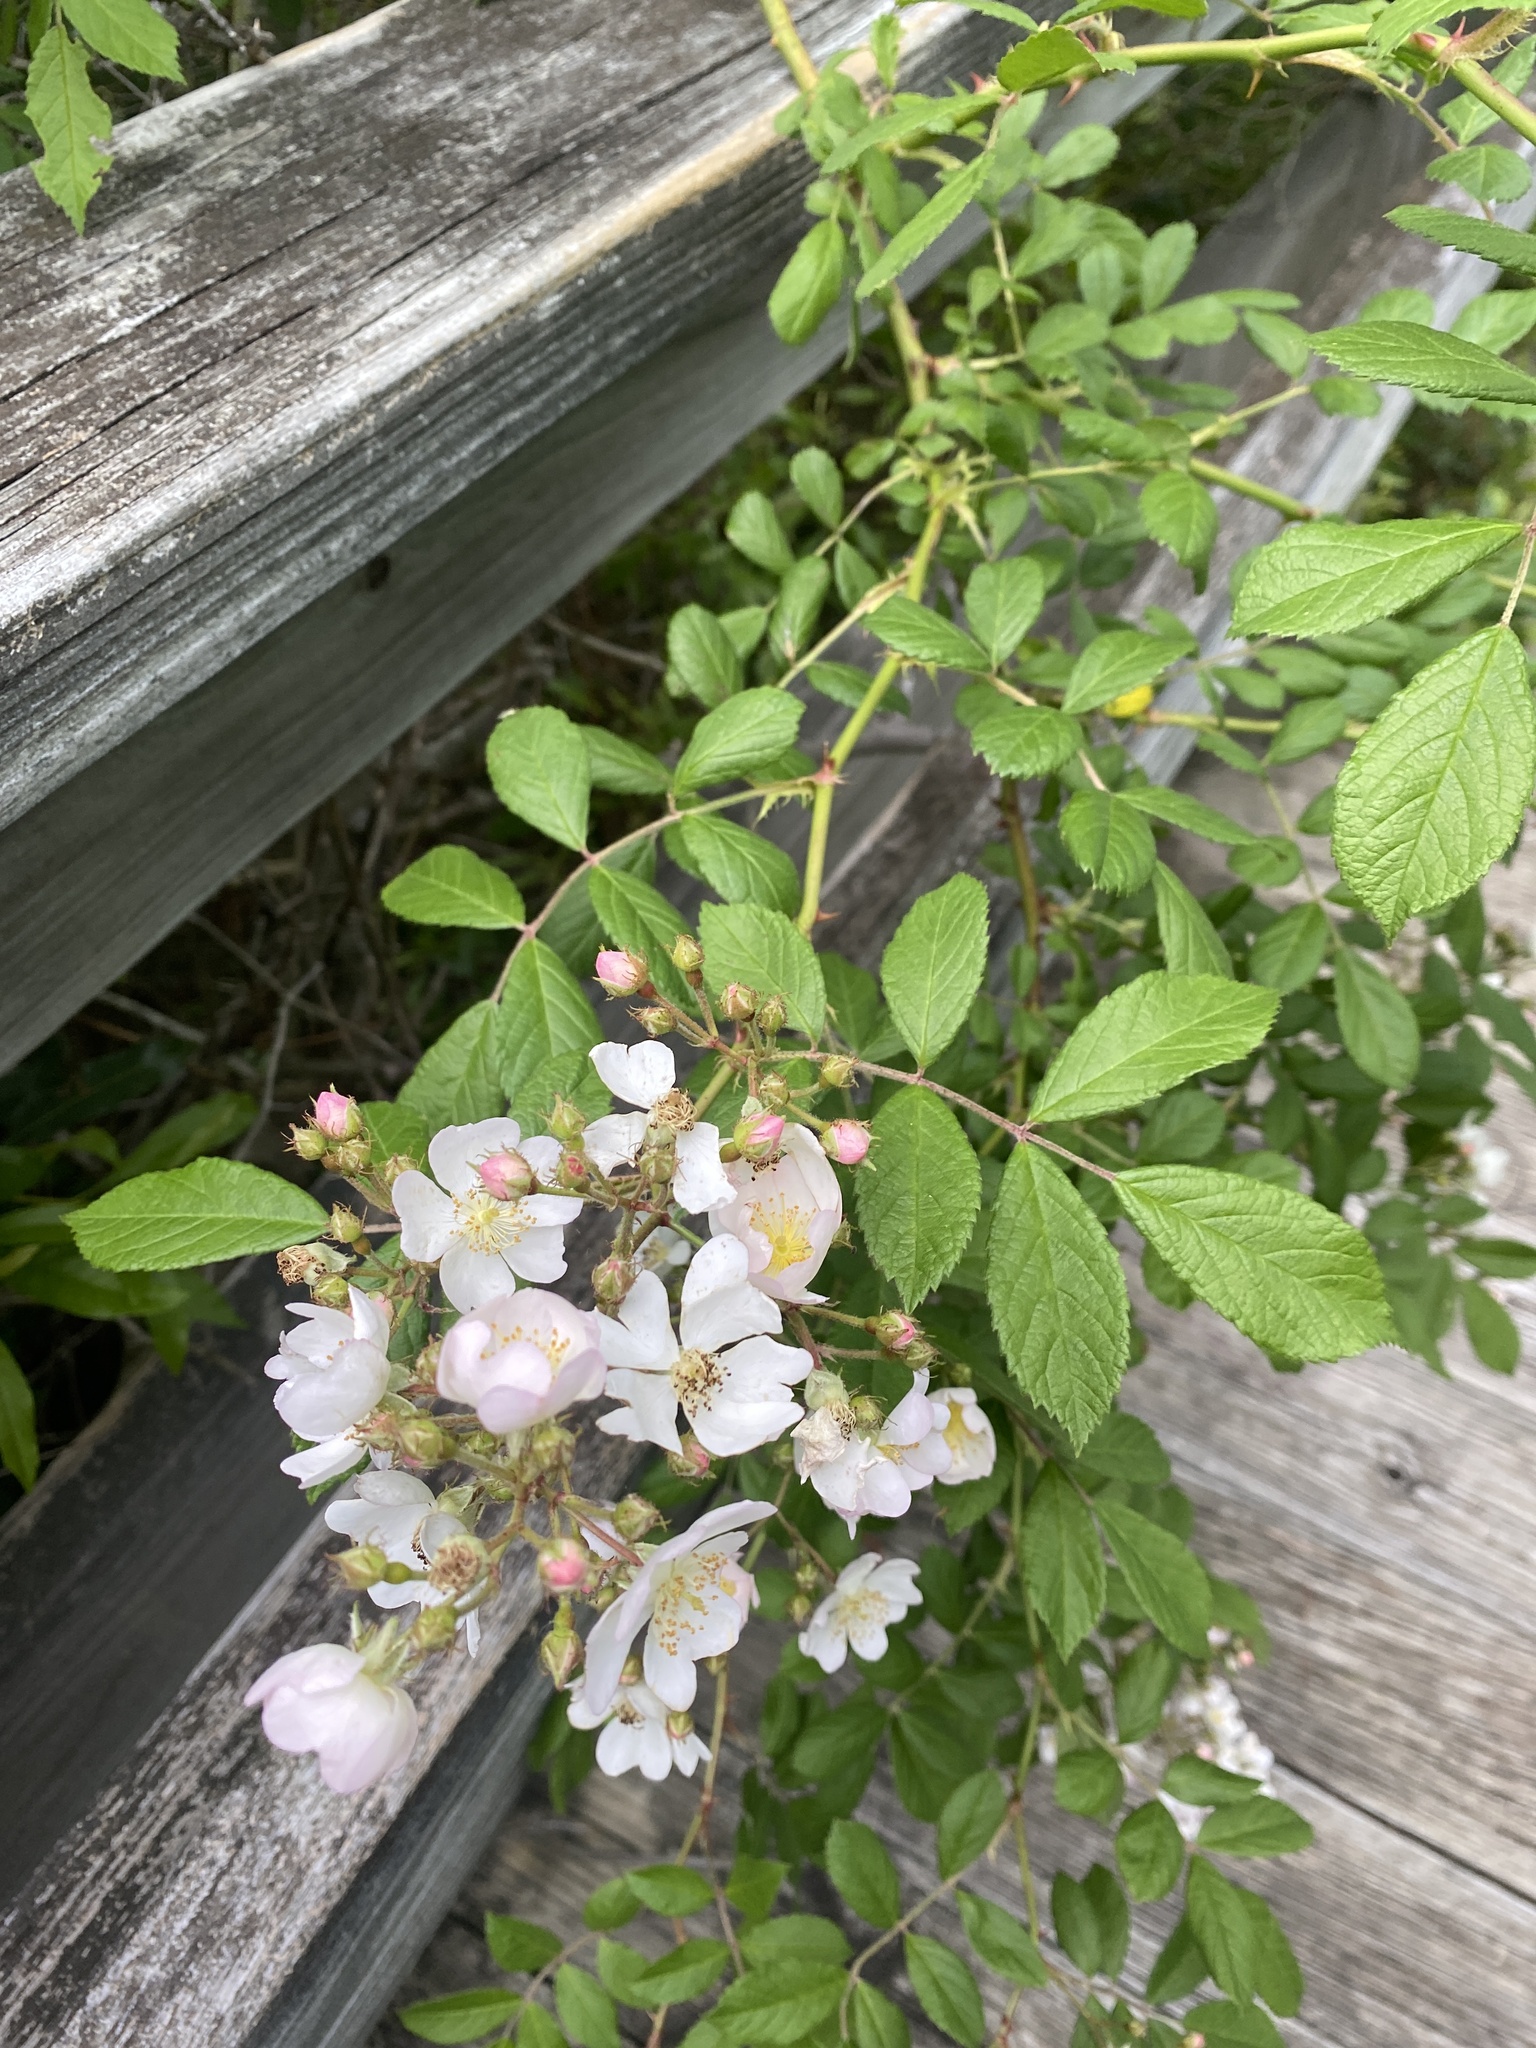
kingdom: Plantae
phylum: Tracheophyta
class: Magnoliopsida
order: Rosales
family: Rosaceae
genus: Rosa
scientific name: Rosa multiflora
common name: Multiflora rose
